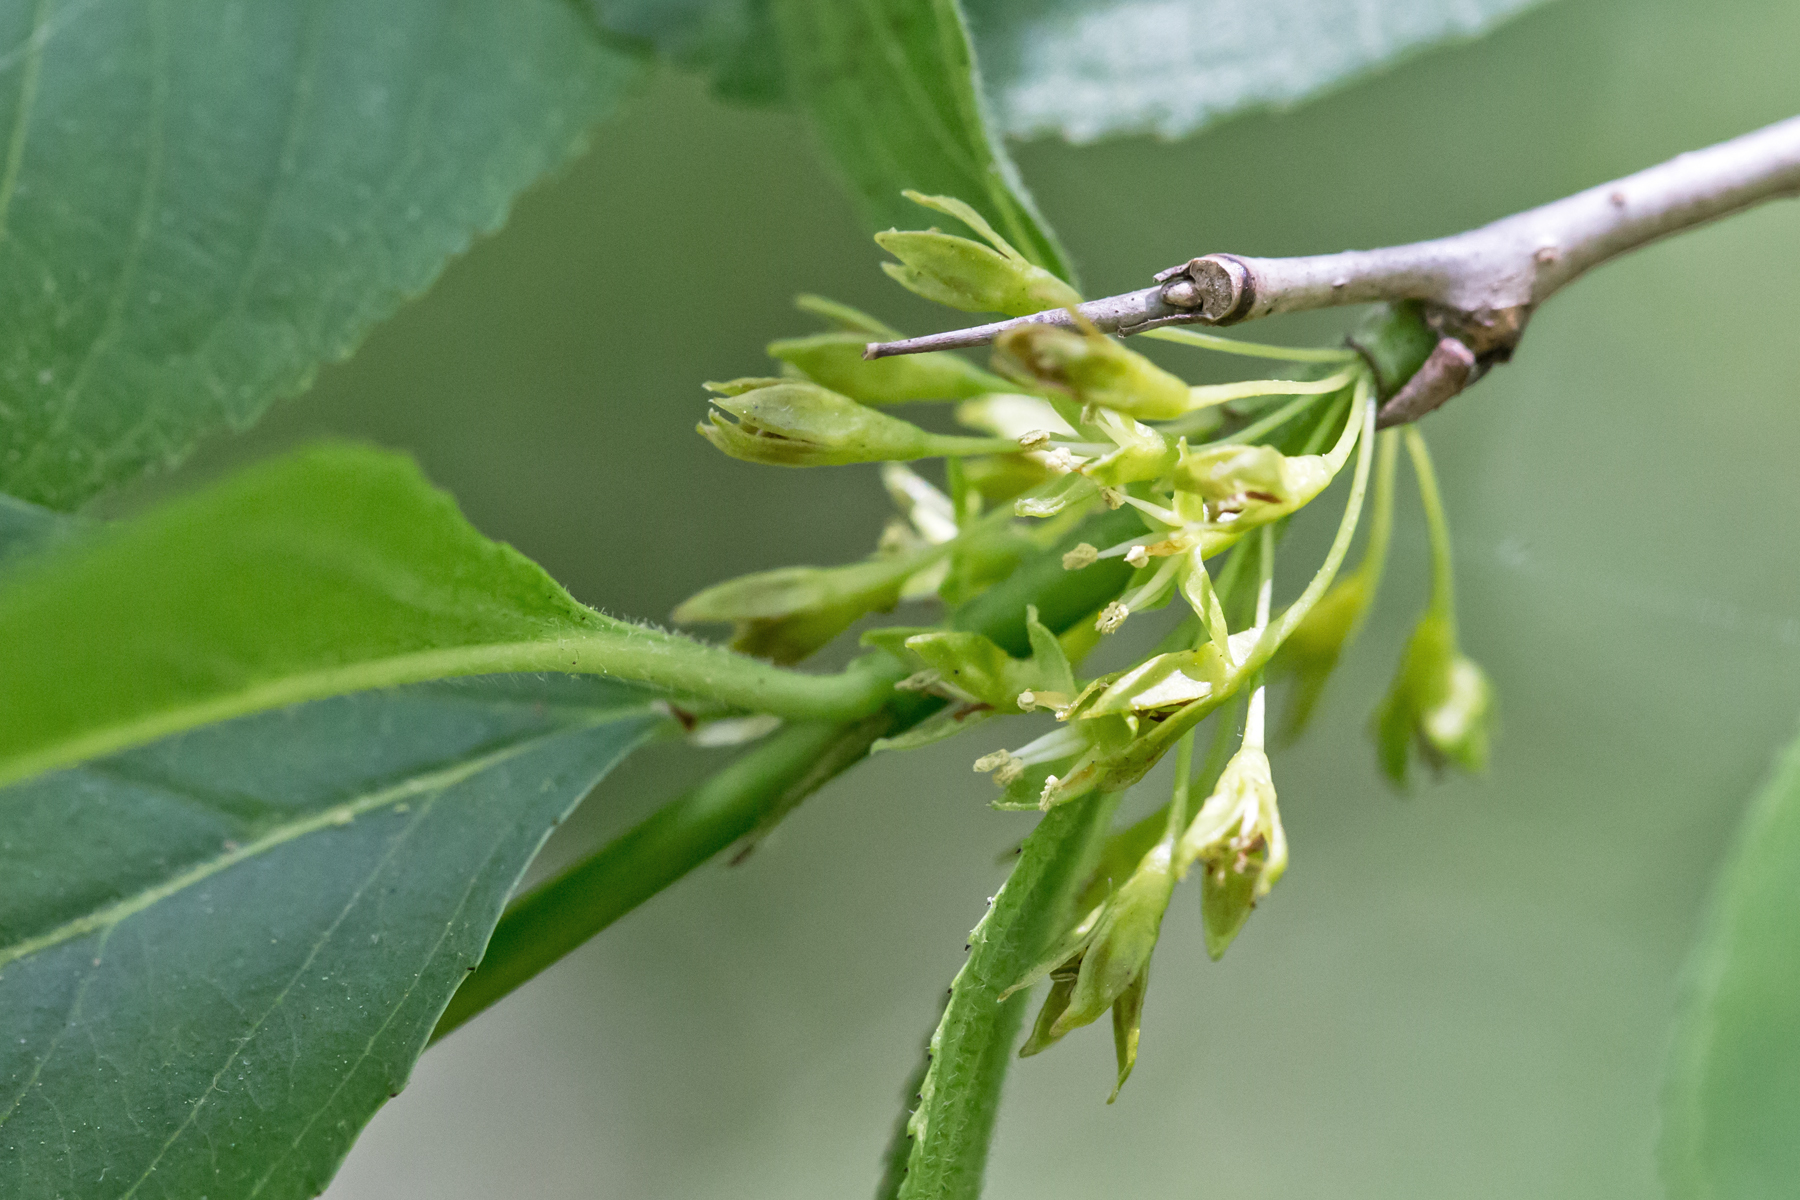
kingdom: Plantae
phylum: Tracheophyta
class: Magnoliopsida
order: Rosales
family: Rhamnaceae
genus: Rhamnus
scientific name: Rhamnus cathartica
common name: Common buckthorn
